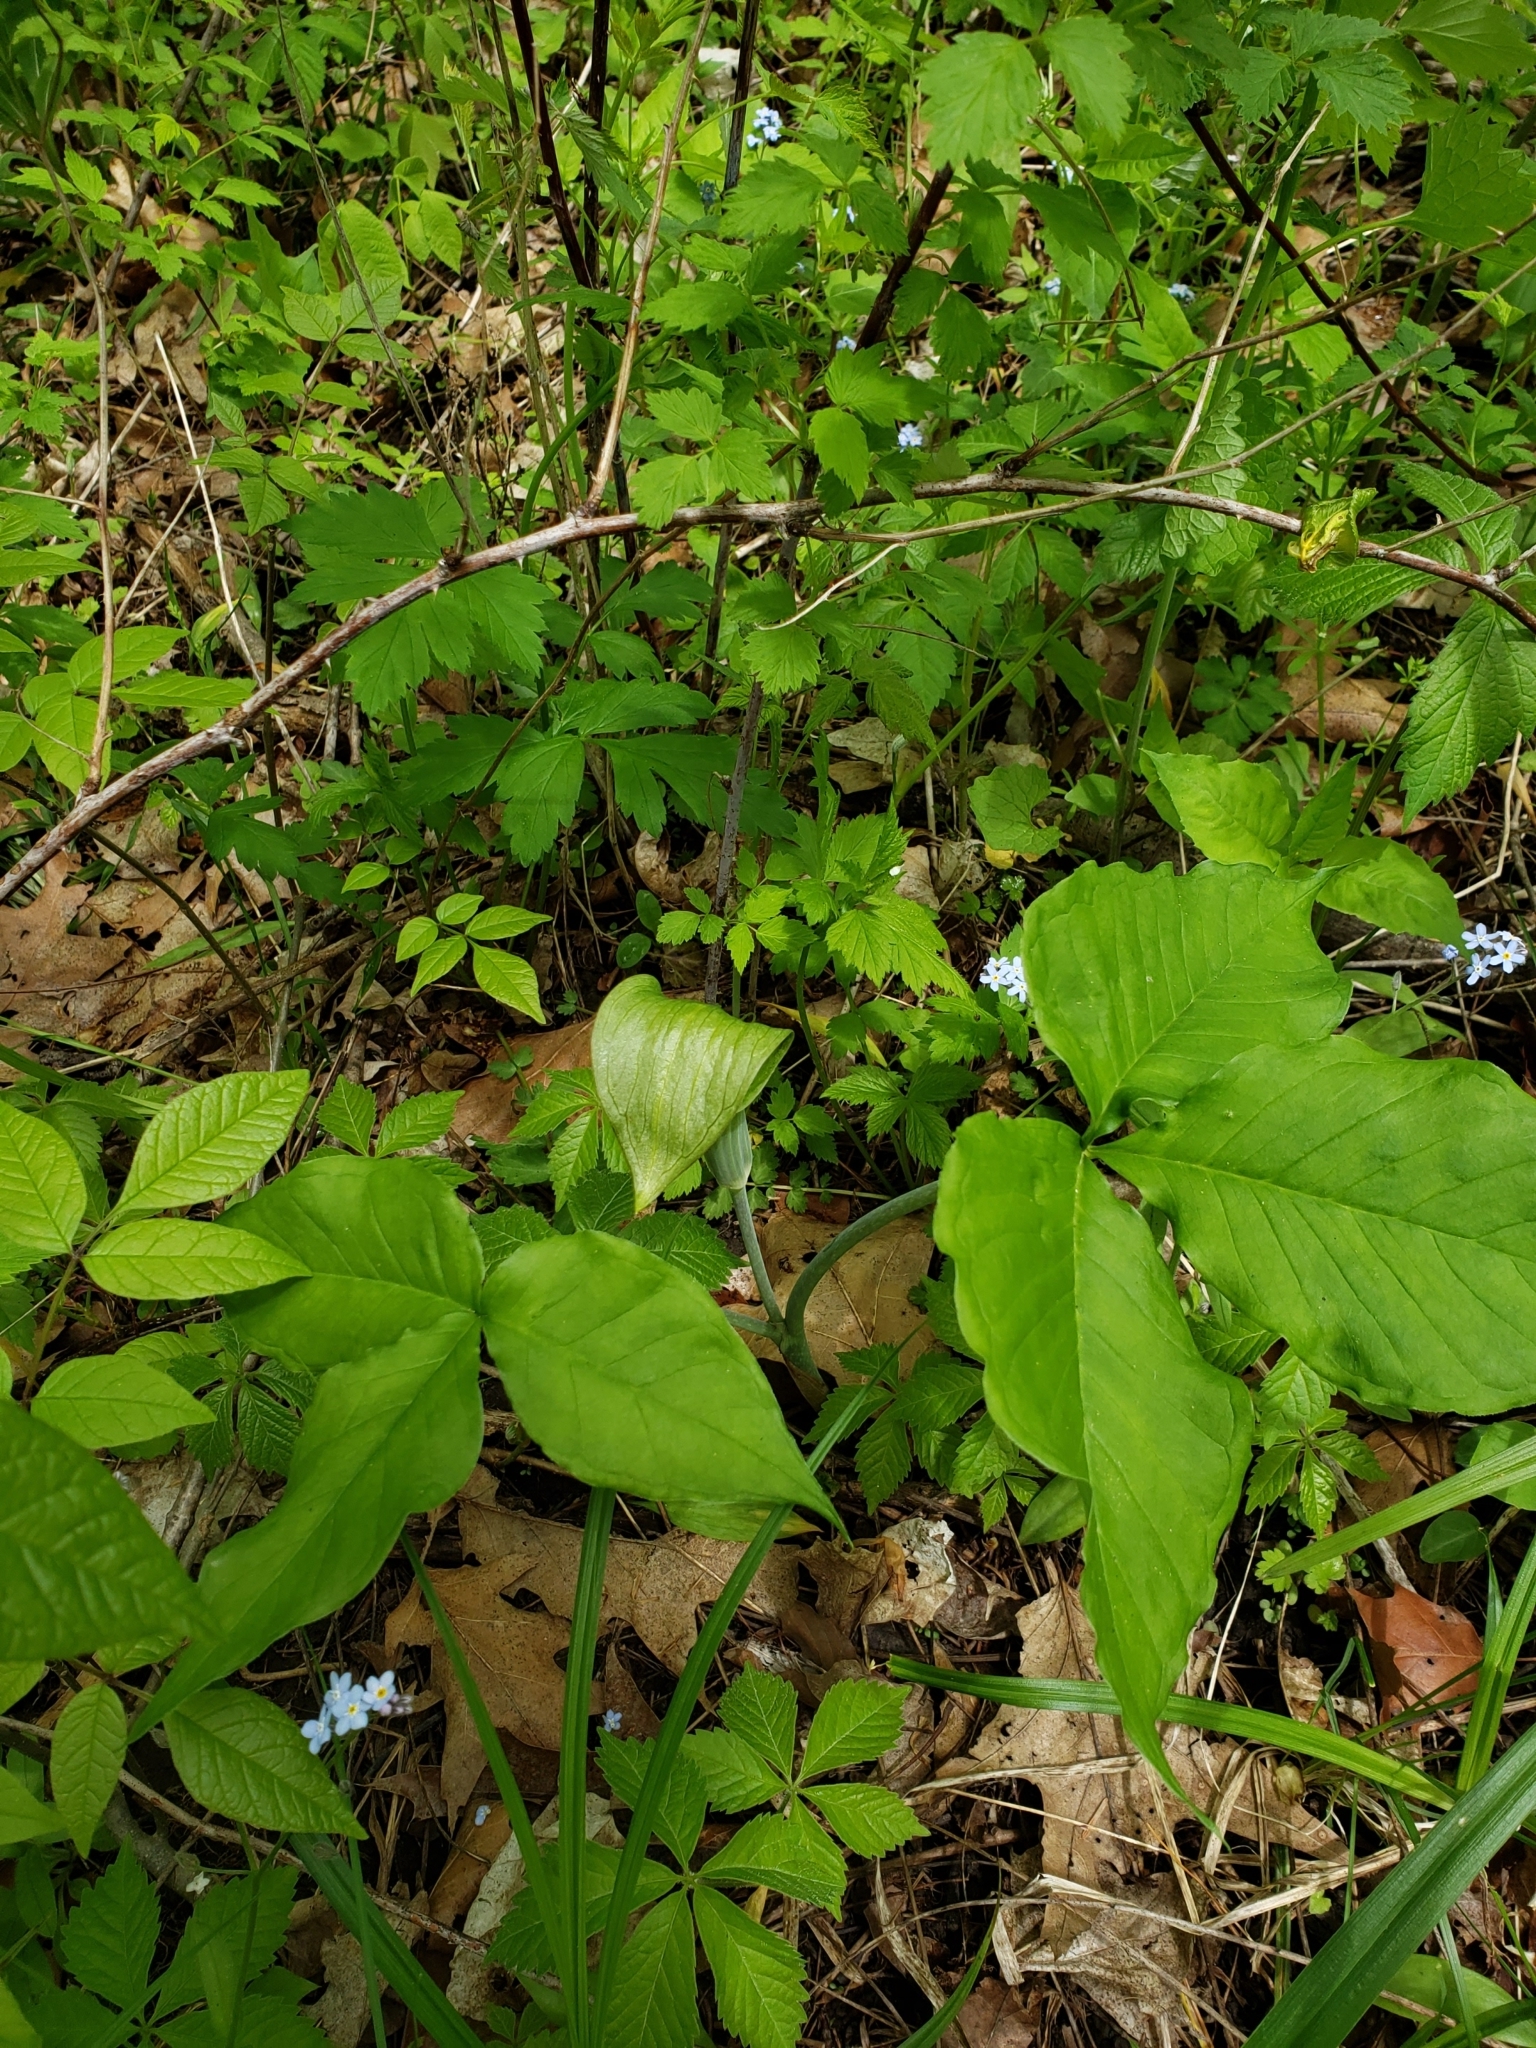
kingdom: Plantae
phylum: Tracheophyta
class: Liliopsida
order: Alismatales
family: Araceae
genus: Arisaema
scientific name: Arisaema triphyllum
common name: Jack-in-the-pulpit
